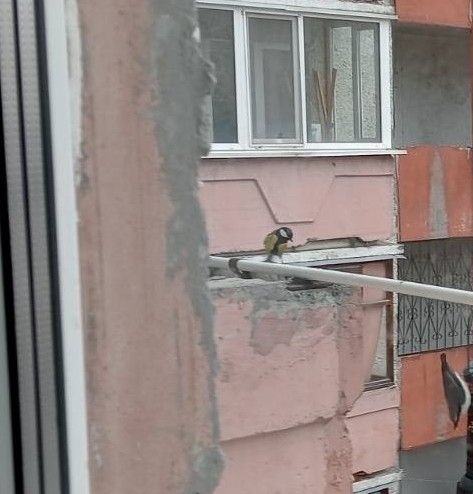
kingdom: Animalia
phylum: Chordata
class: Aves
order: Passeriformes
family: Paridae
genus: Parus
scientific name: Parus major
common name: Great tit
